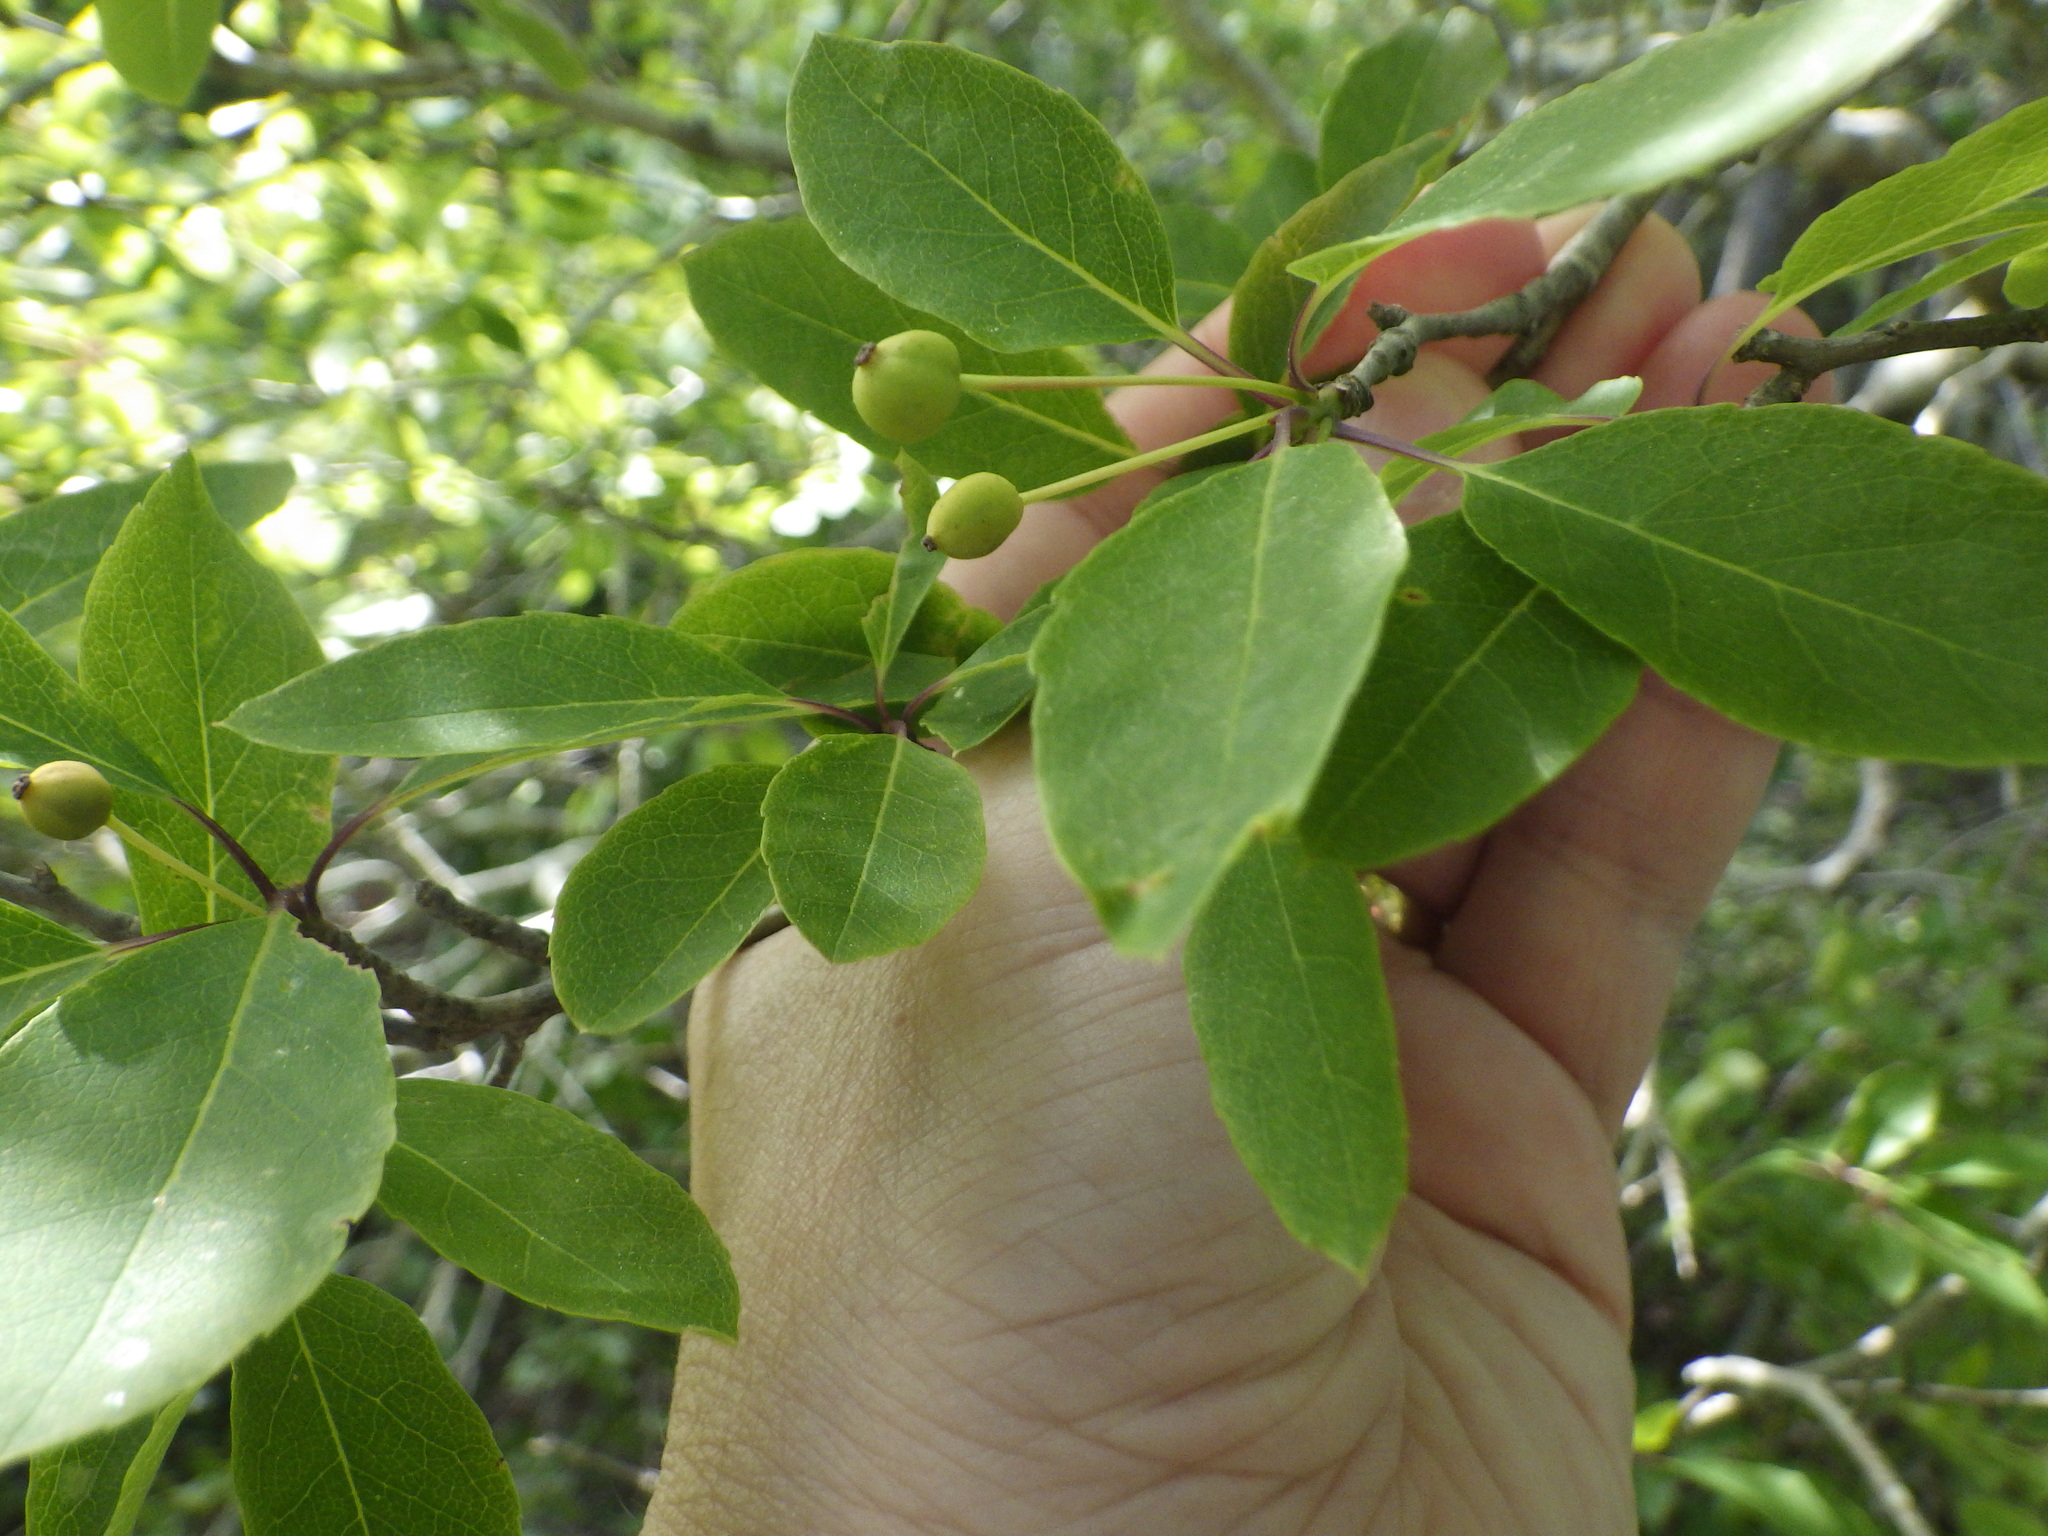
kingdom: Plantae
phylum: Tracheophyta
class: Magnoliopsida
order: Aquifoliales
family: Aquifoliaceae
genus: Ilex
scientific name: Ilex mucronata
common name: Catberry
